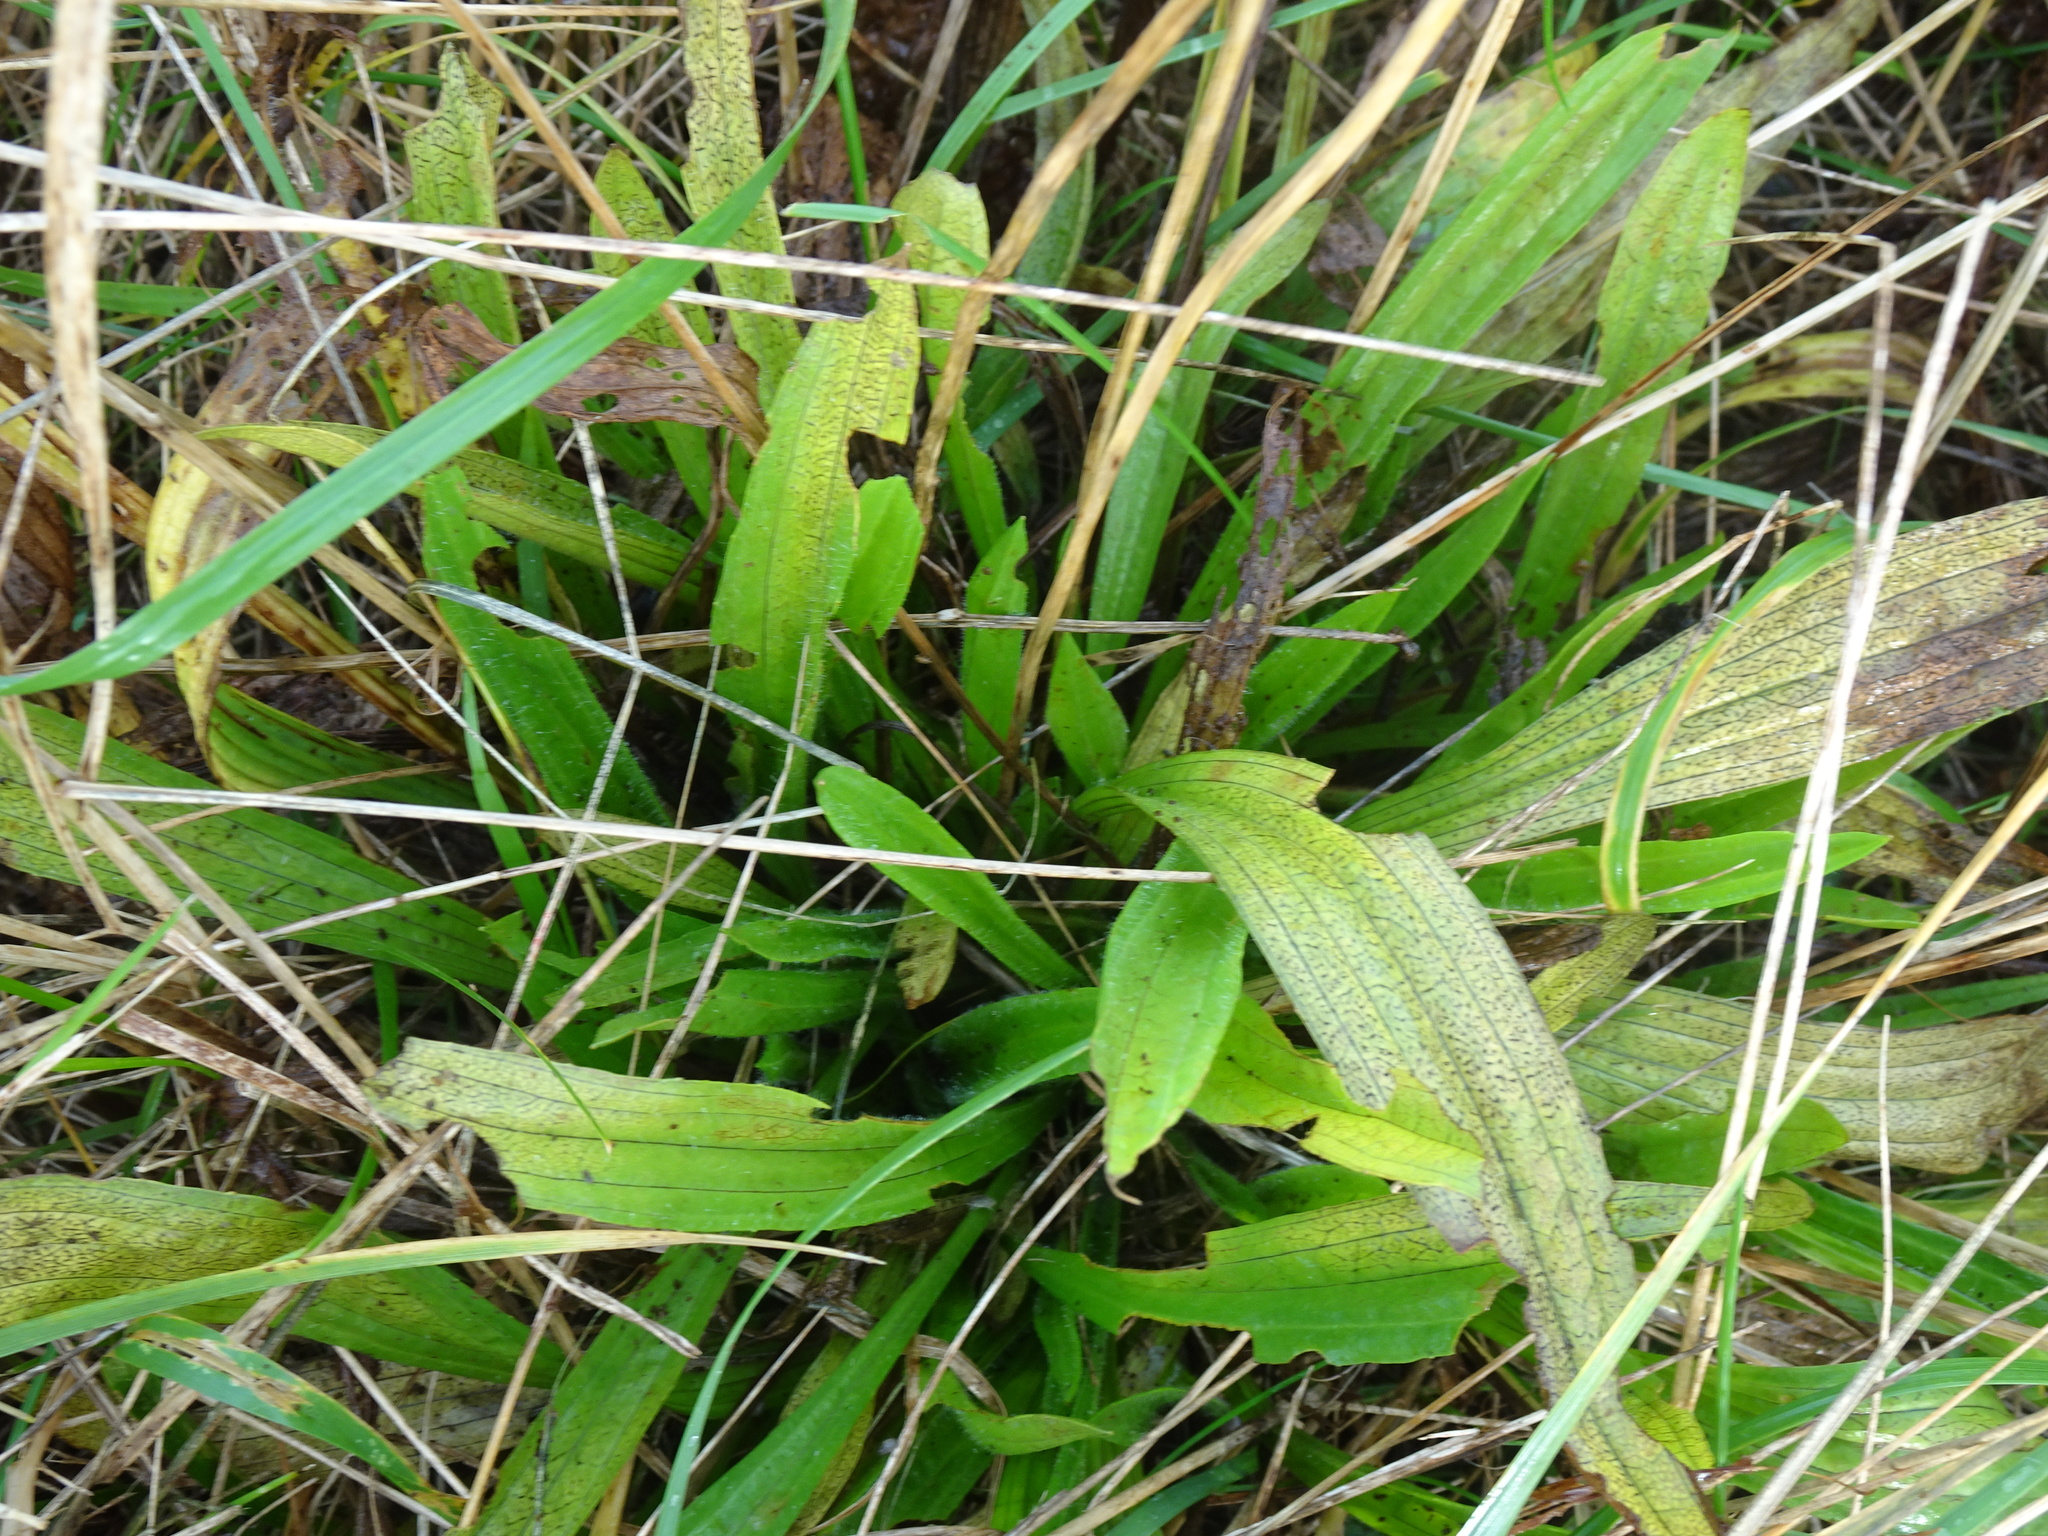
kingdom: Plantae
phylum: Tracheophyta
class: Magnoliopsida
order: Lamiales
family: Plantaginaceae
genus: Plantago
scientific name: Plantago lanceolata
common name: Ribwort plantain
